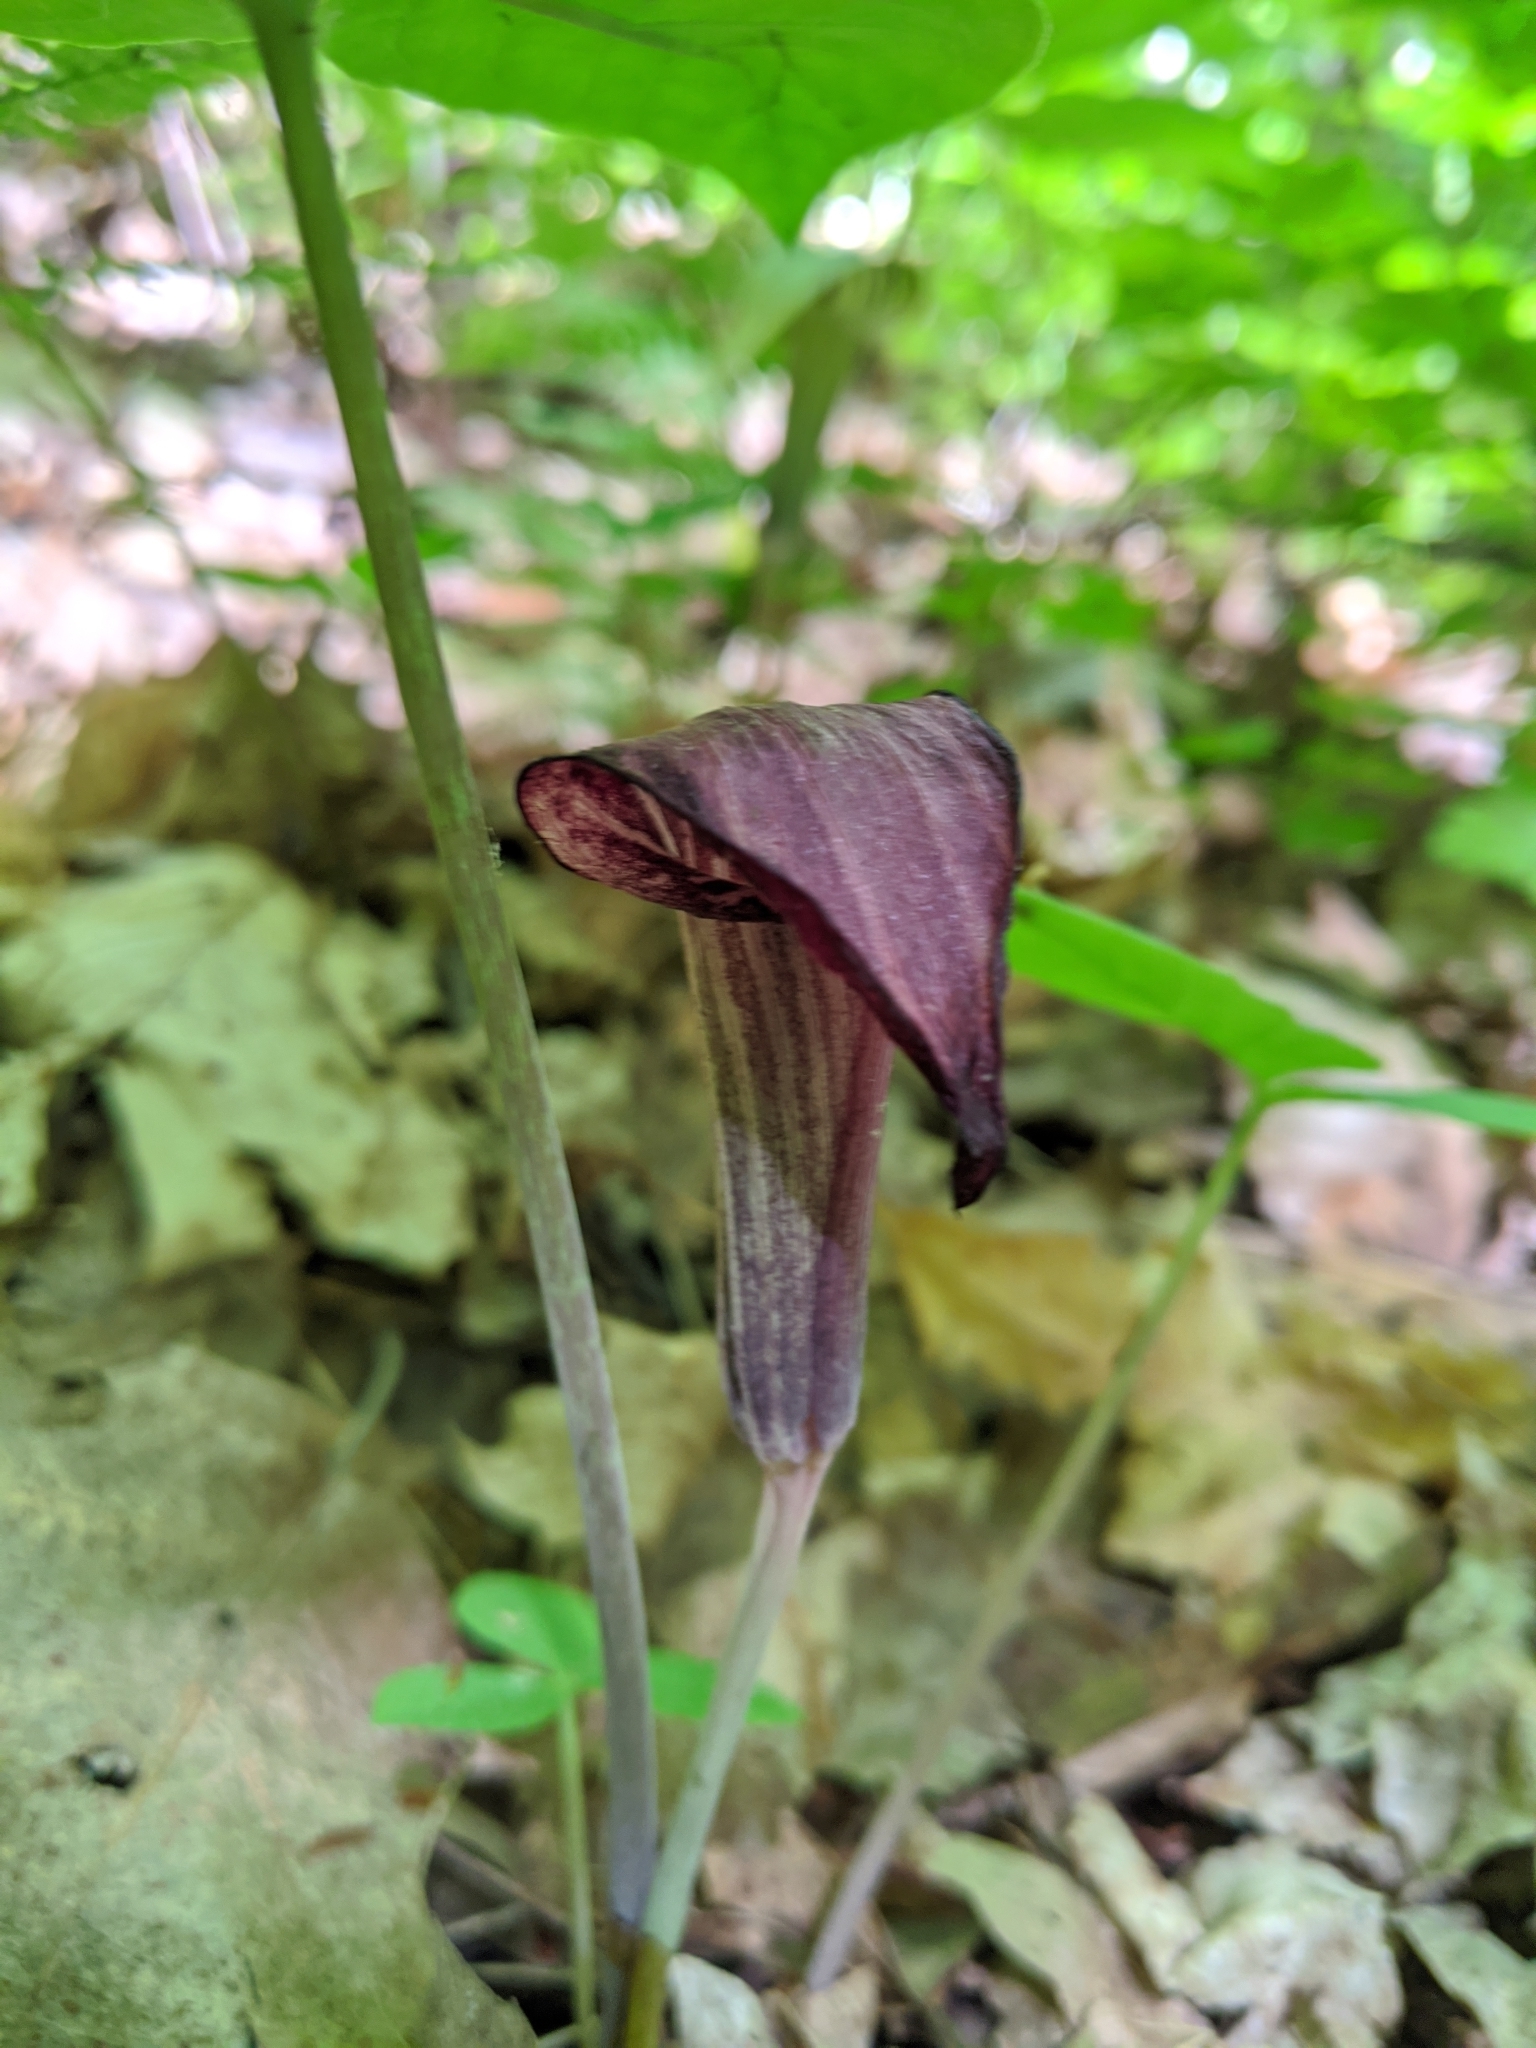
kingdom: Plantae
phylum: Tracheophyta
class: Liliopsida
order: Alismatales
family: Araceae
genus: Arisaema
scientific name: Arisaema triphyllum
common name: Jack-in-the-pulpit
